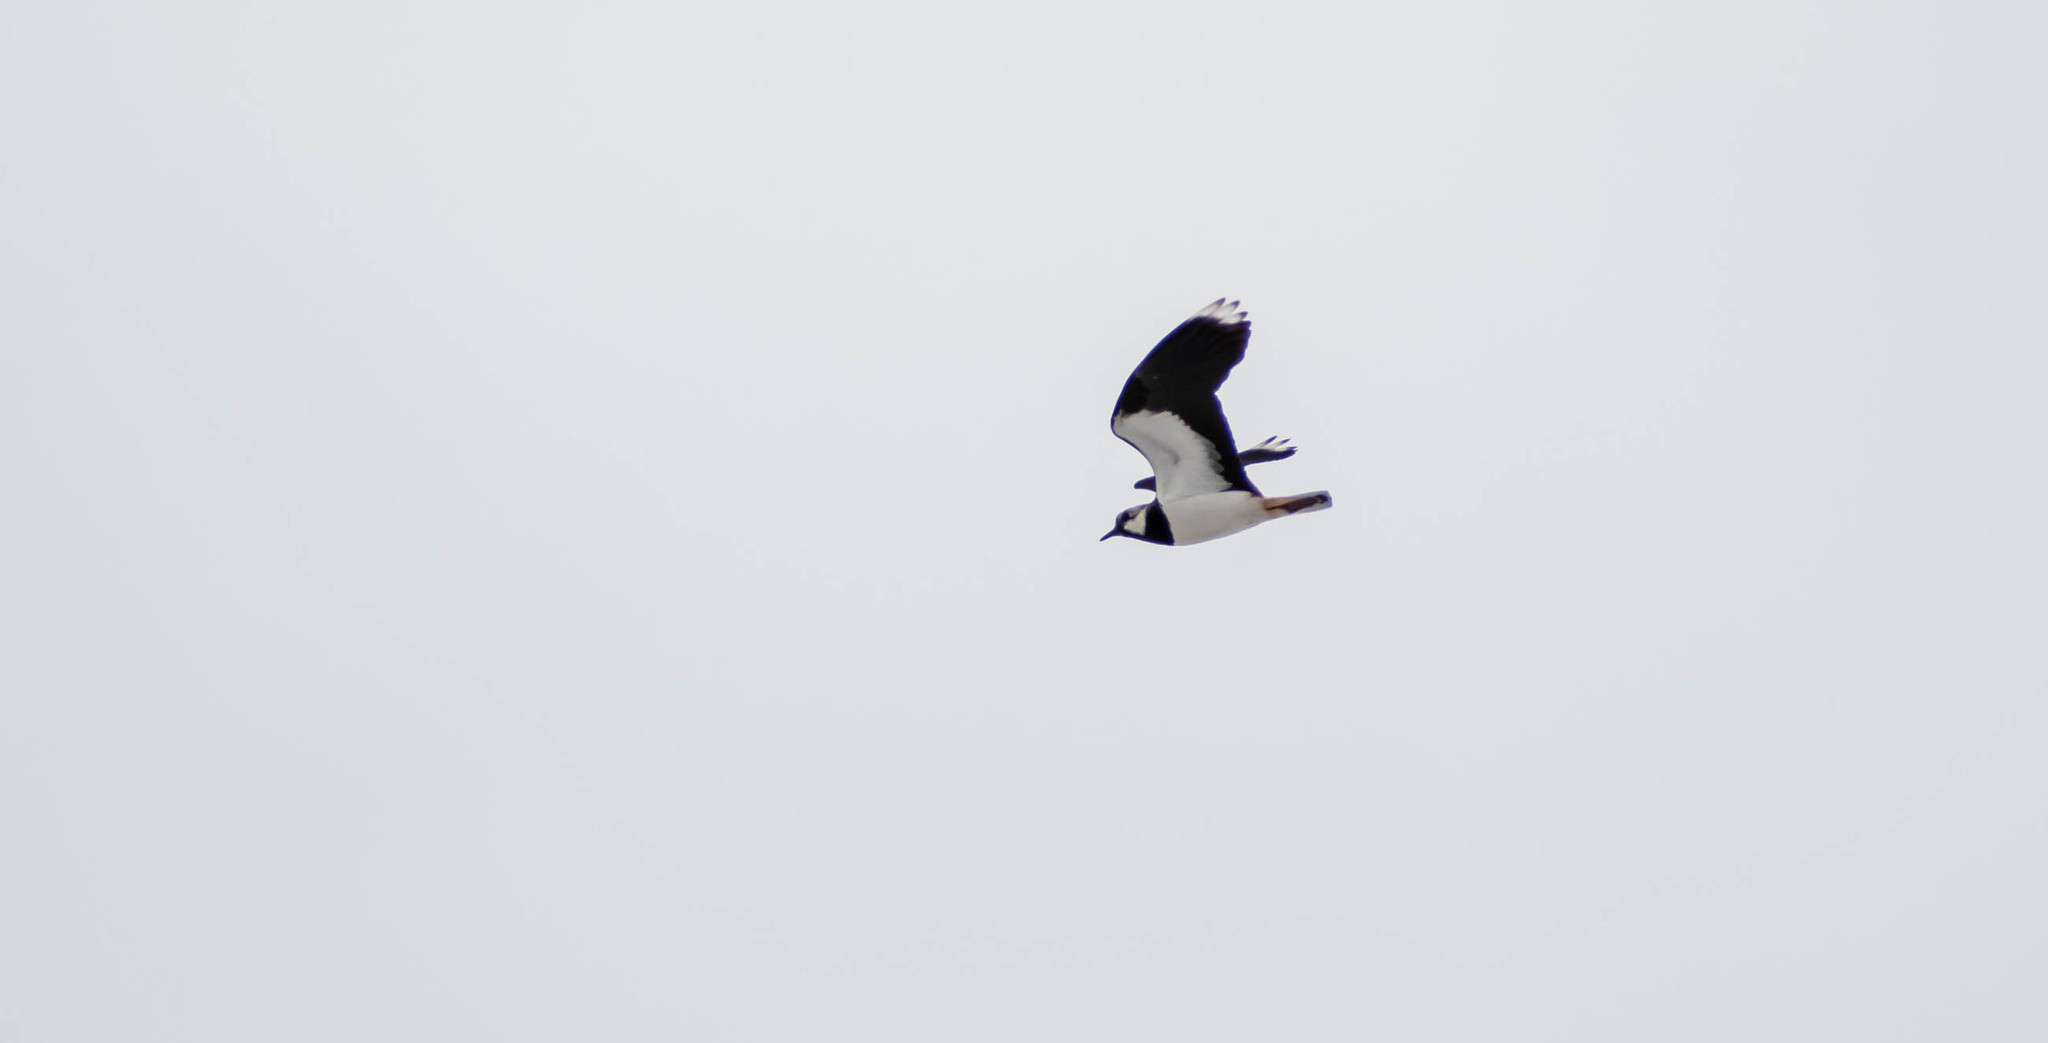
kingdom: Animalia
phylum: Chordata
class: Aves
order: Charadriiformes
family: Charadriidae
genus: Vanellus
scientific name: Vanellus vanellus
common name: Northern lapwing
